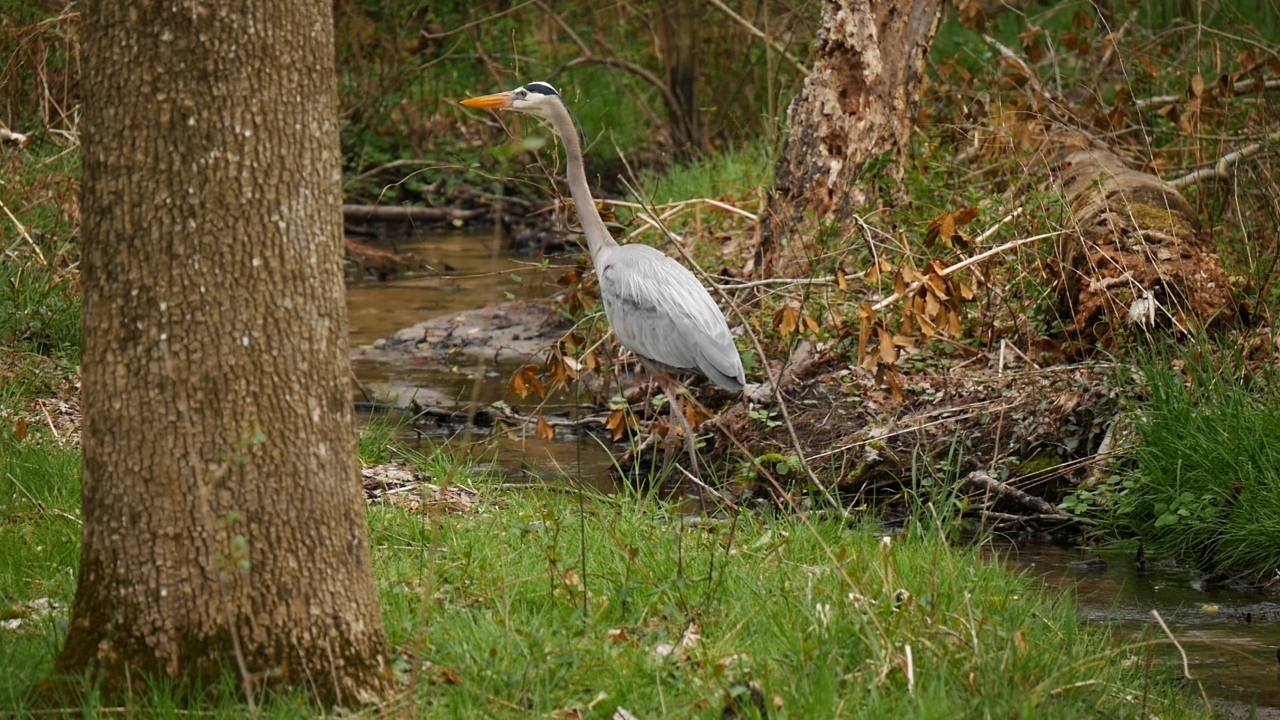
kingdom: Animalia
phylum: Chordata
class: Aves
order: Pelecaniformes
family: Ardeidae
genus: Ardea
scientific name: Ardea herodias
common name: Great blue heron
